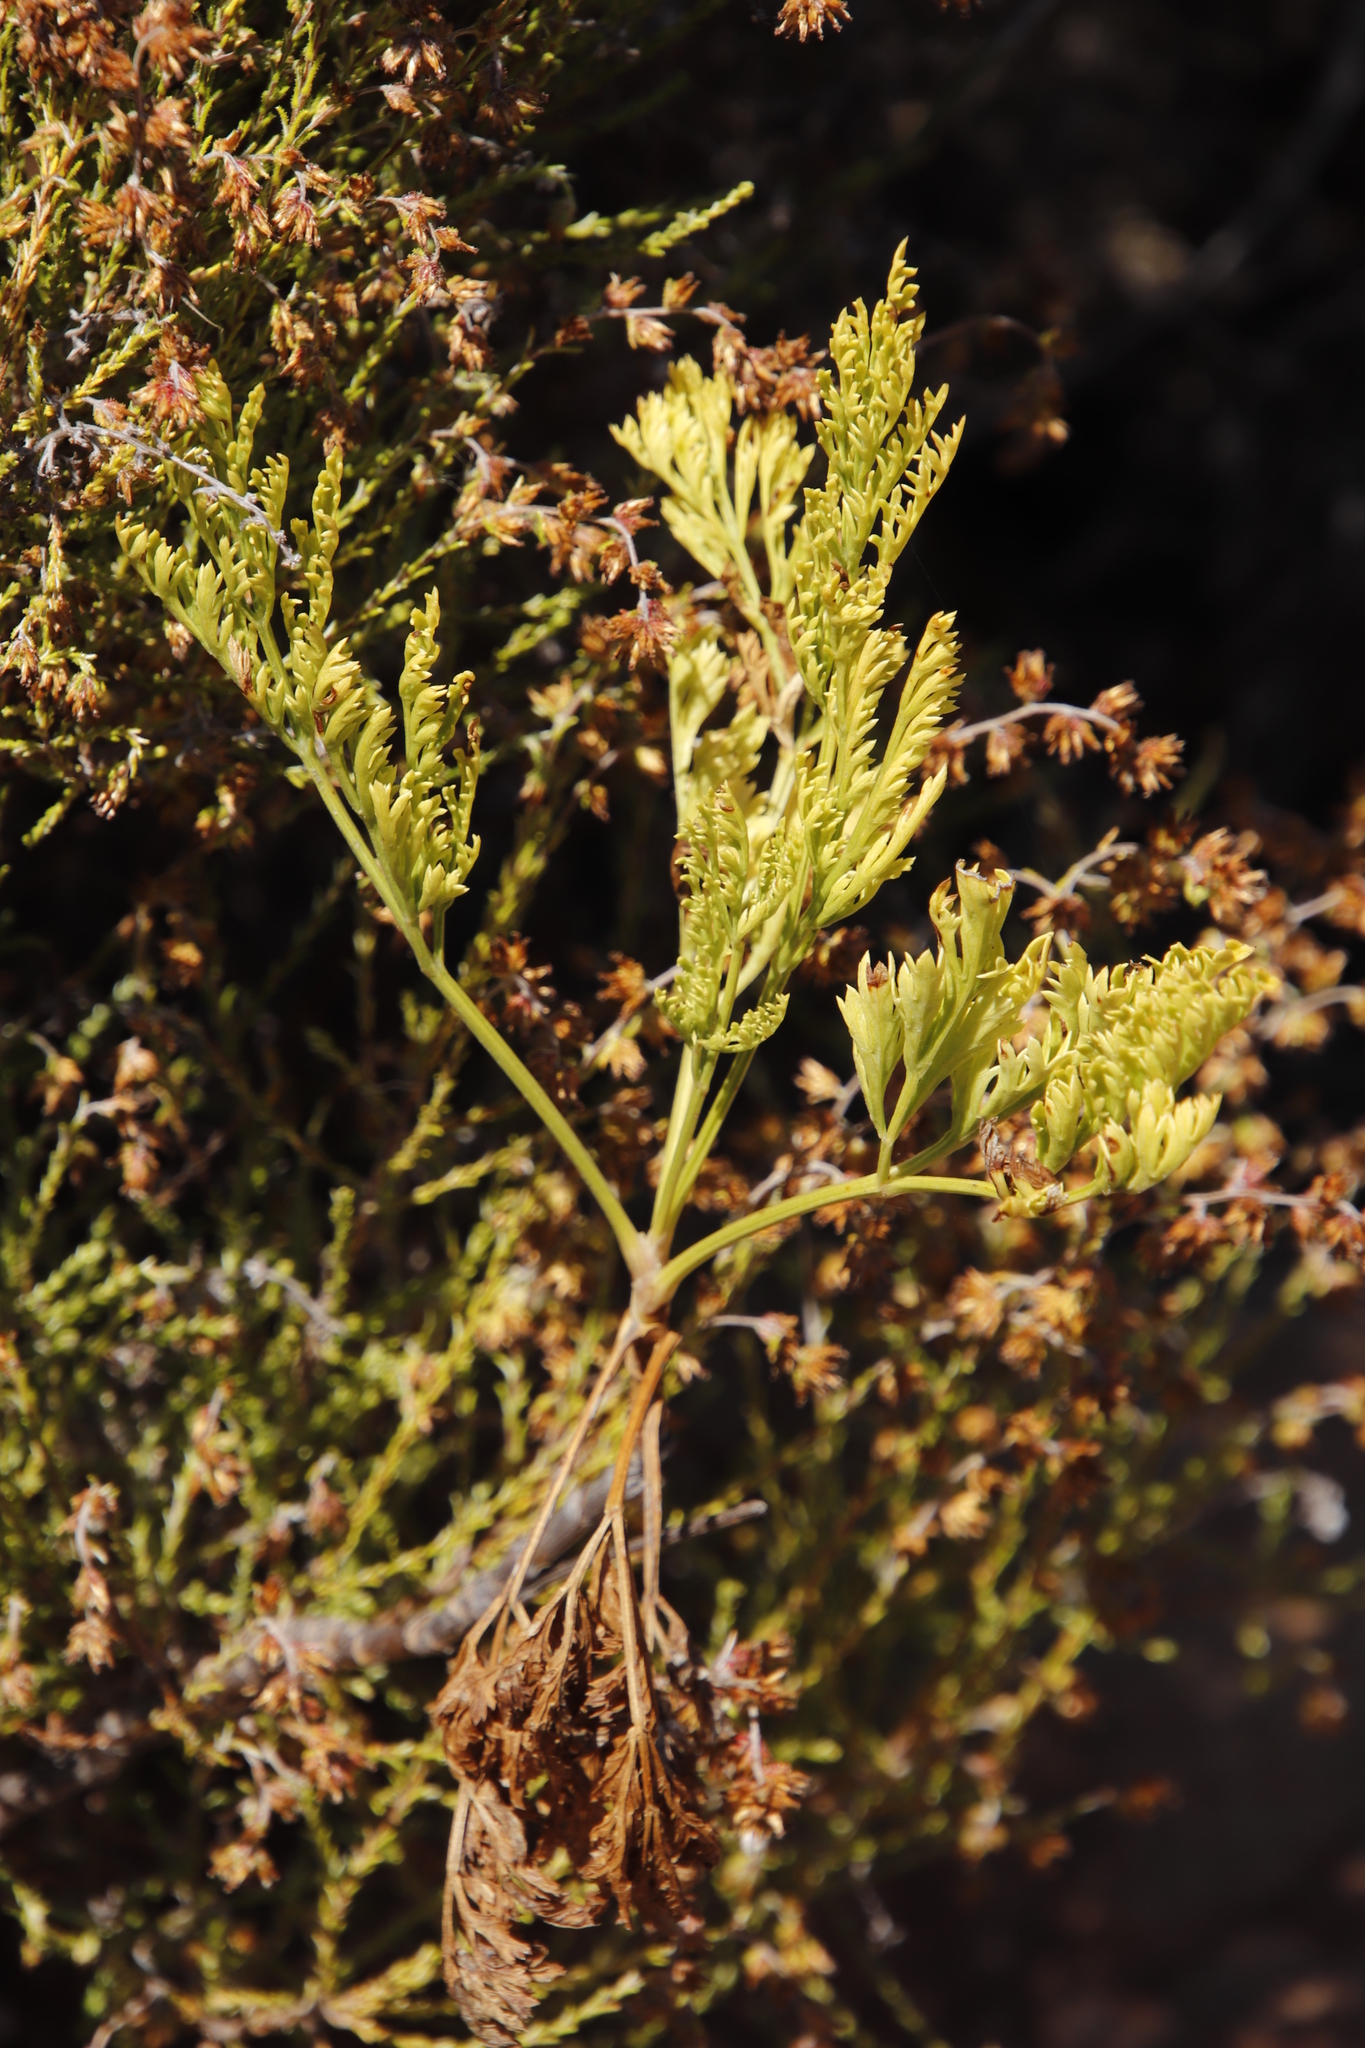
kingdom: Plantae
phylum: Tracheophyta
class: Magnoliopsida
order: Apiales
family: Apiaceae
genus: Glia
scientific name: Glia prolifera
